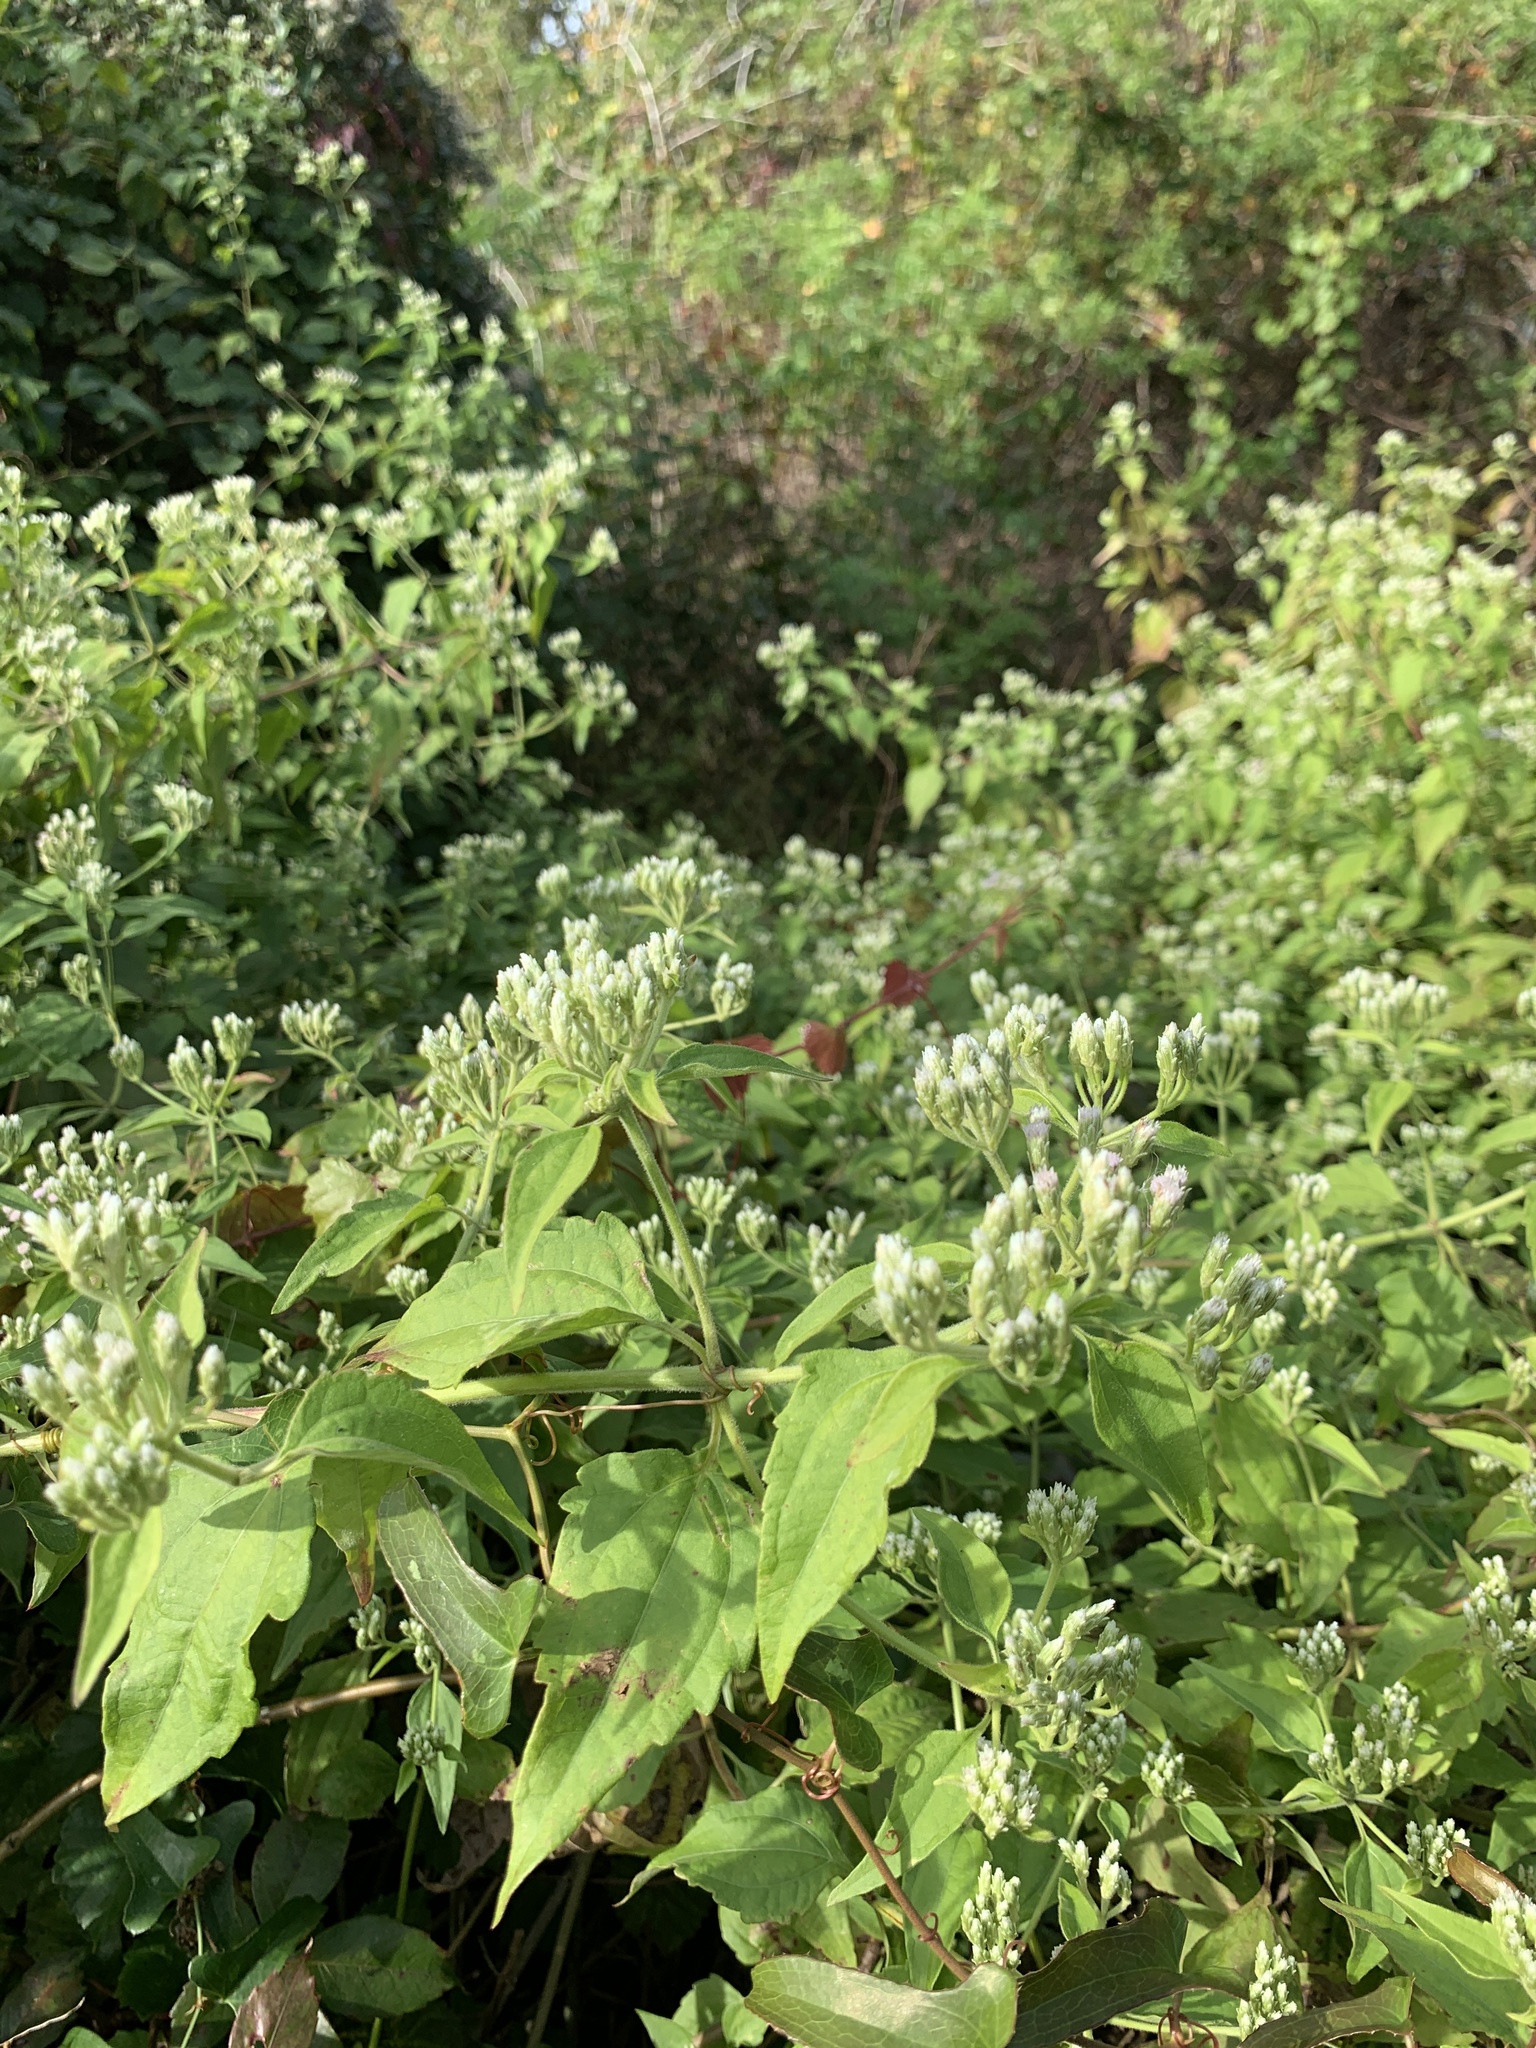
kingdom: Plantae
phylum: Tracheophyta
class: Magnoliopsida
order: Asterales
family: Asteraceae
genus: Chromolaena
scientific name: Chromolaena odorata
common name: Siamweed
